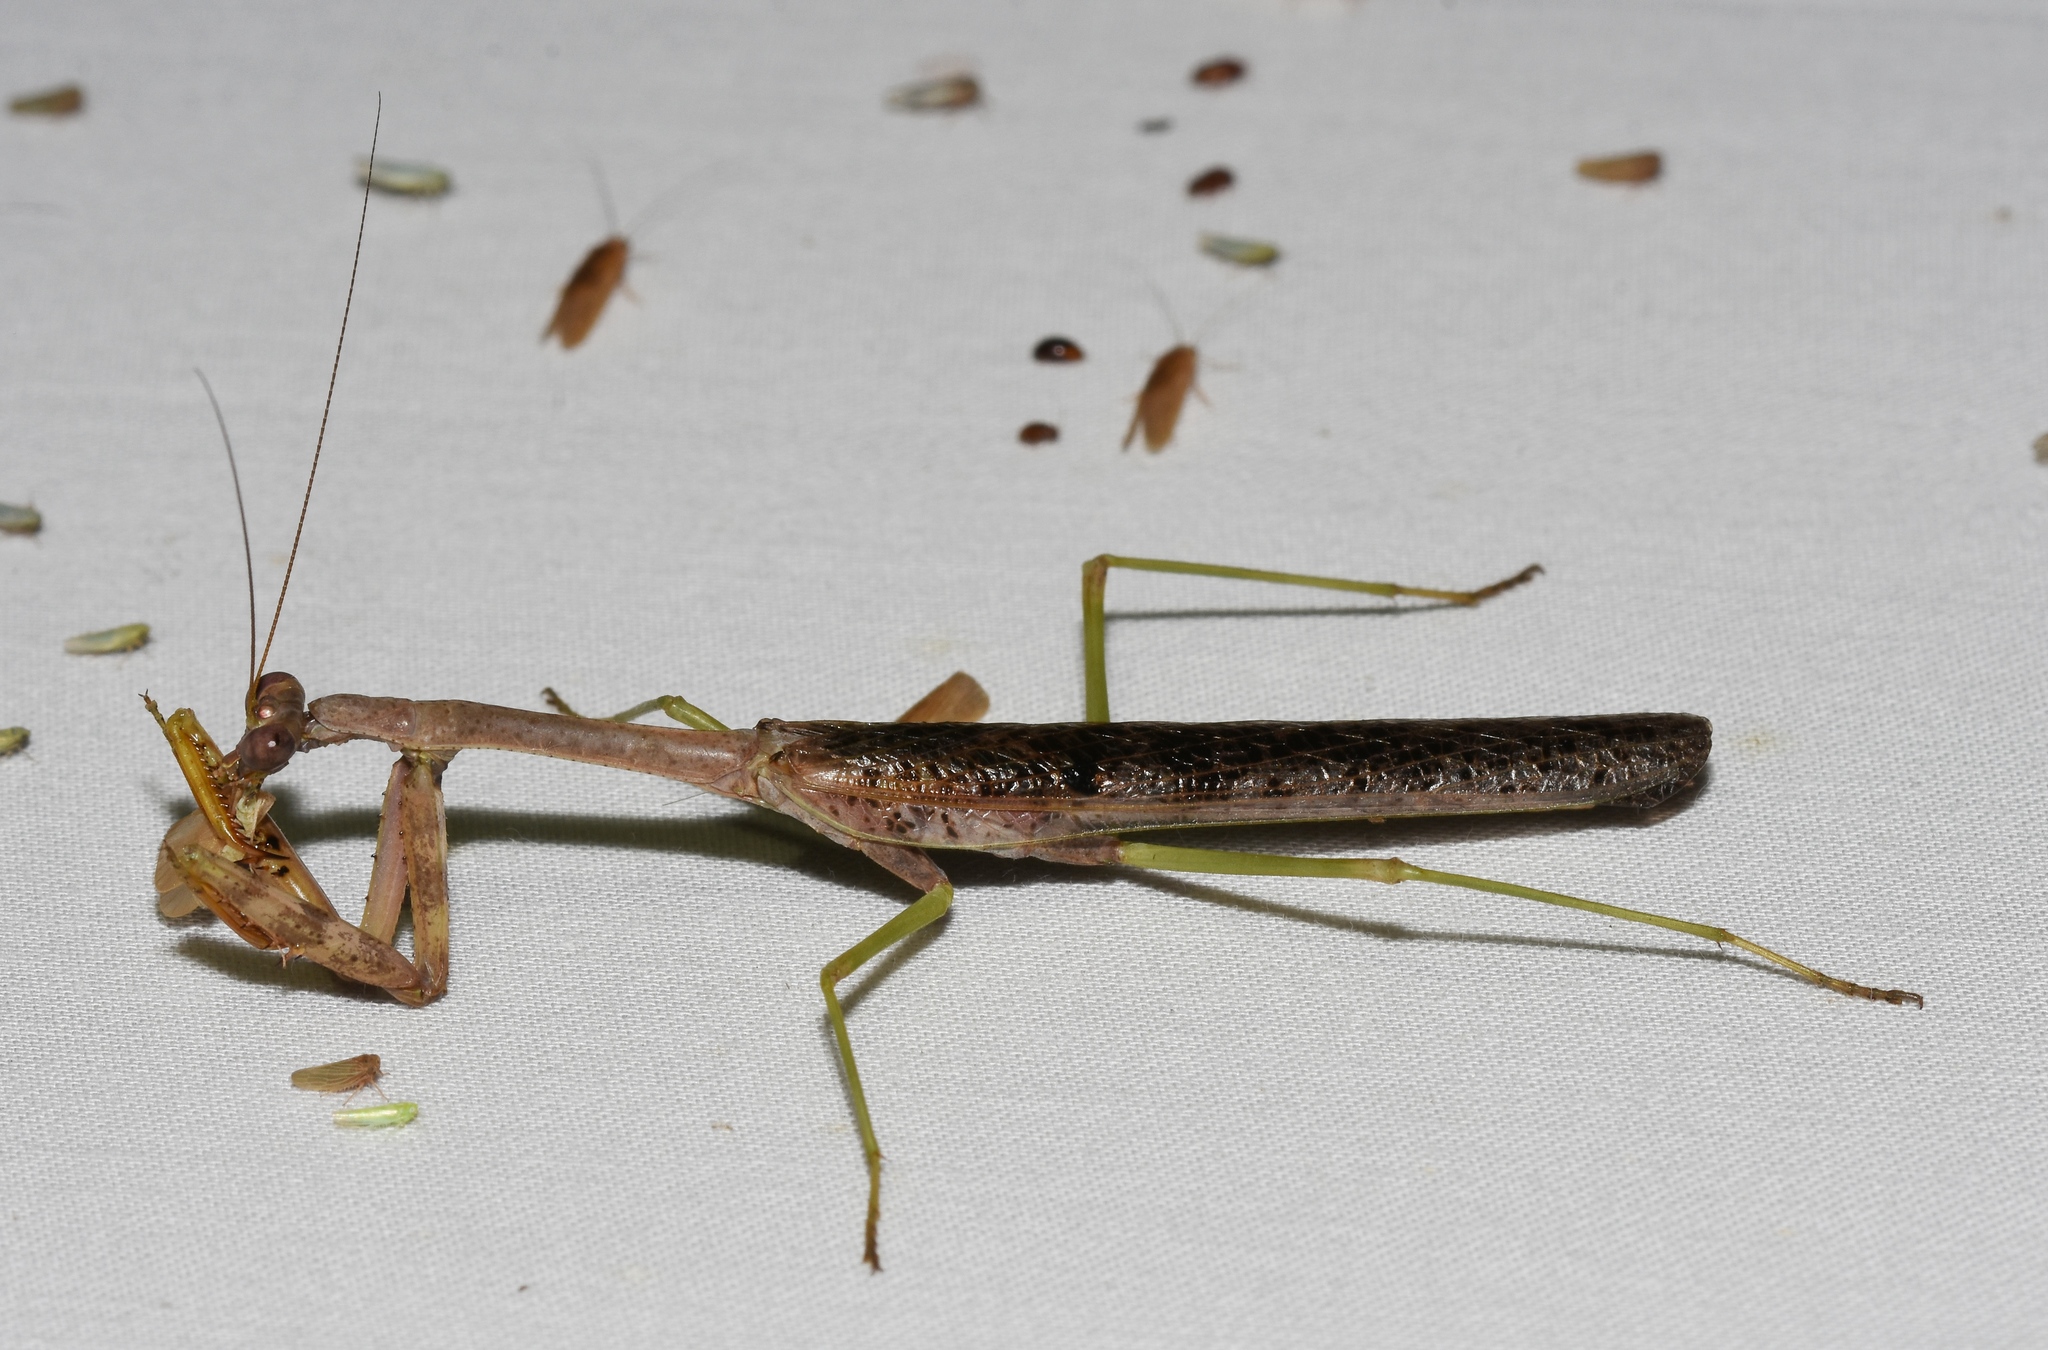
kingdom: Animalia
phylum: Arthropoda
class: Insecta
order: Mantodea
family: Mantidae
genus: Stagmomantis
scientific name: Stagmomantis carolina
